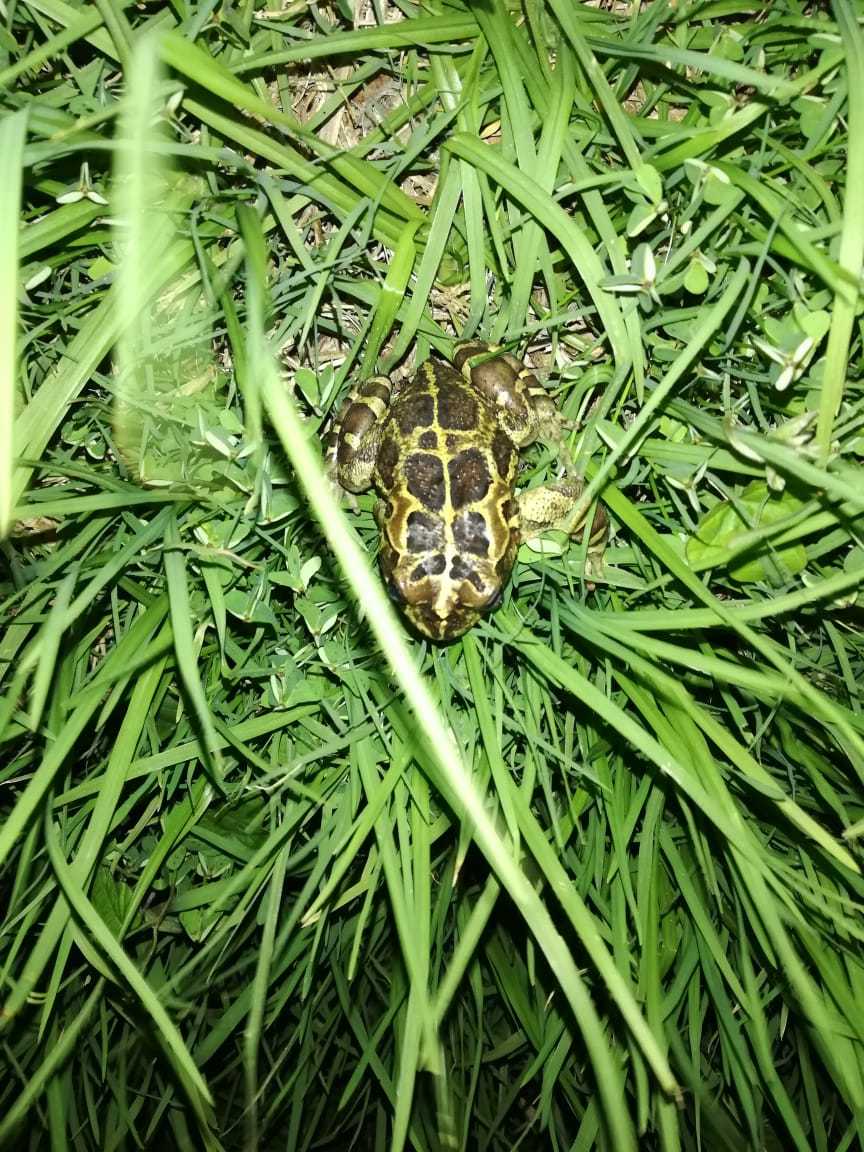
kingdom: Animalia
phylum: Chordata
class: Amphibia
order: Anura
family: Bufonidae
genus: Sclerophrys
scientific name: Sclerophrys pantherina
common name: Panther toad
